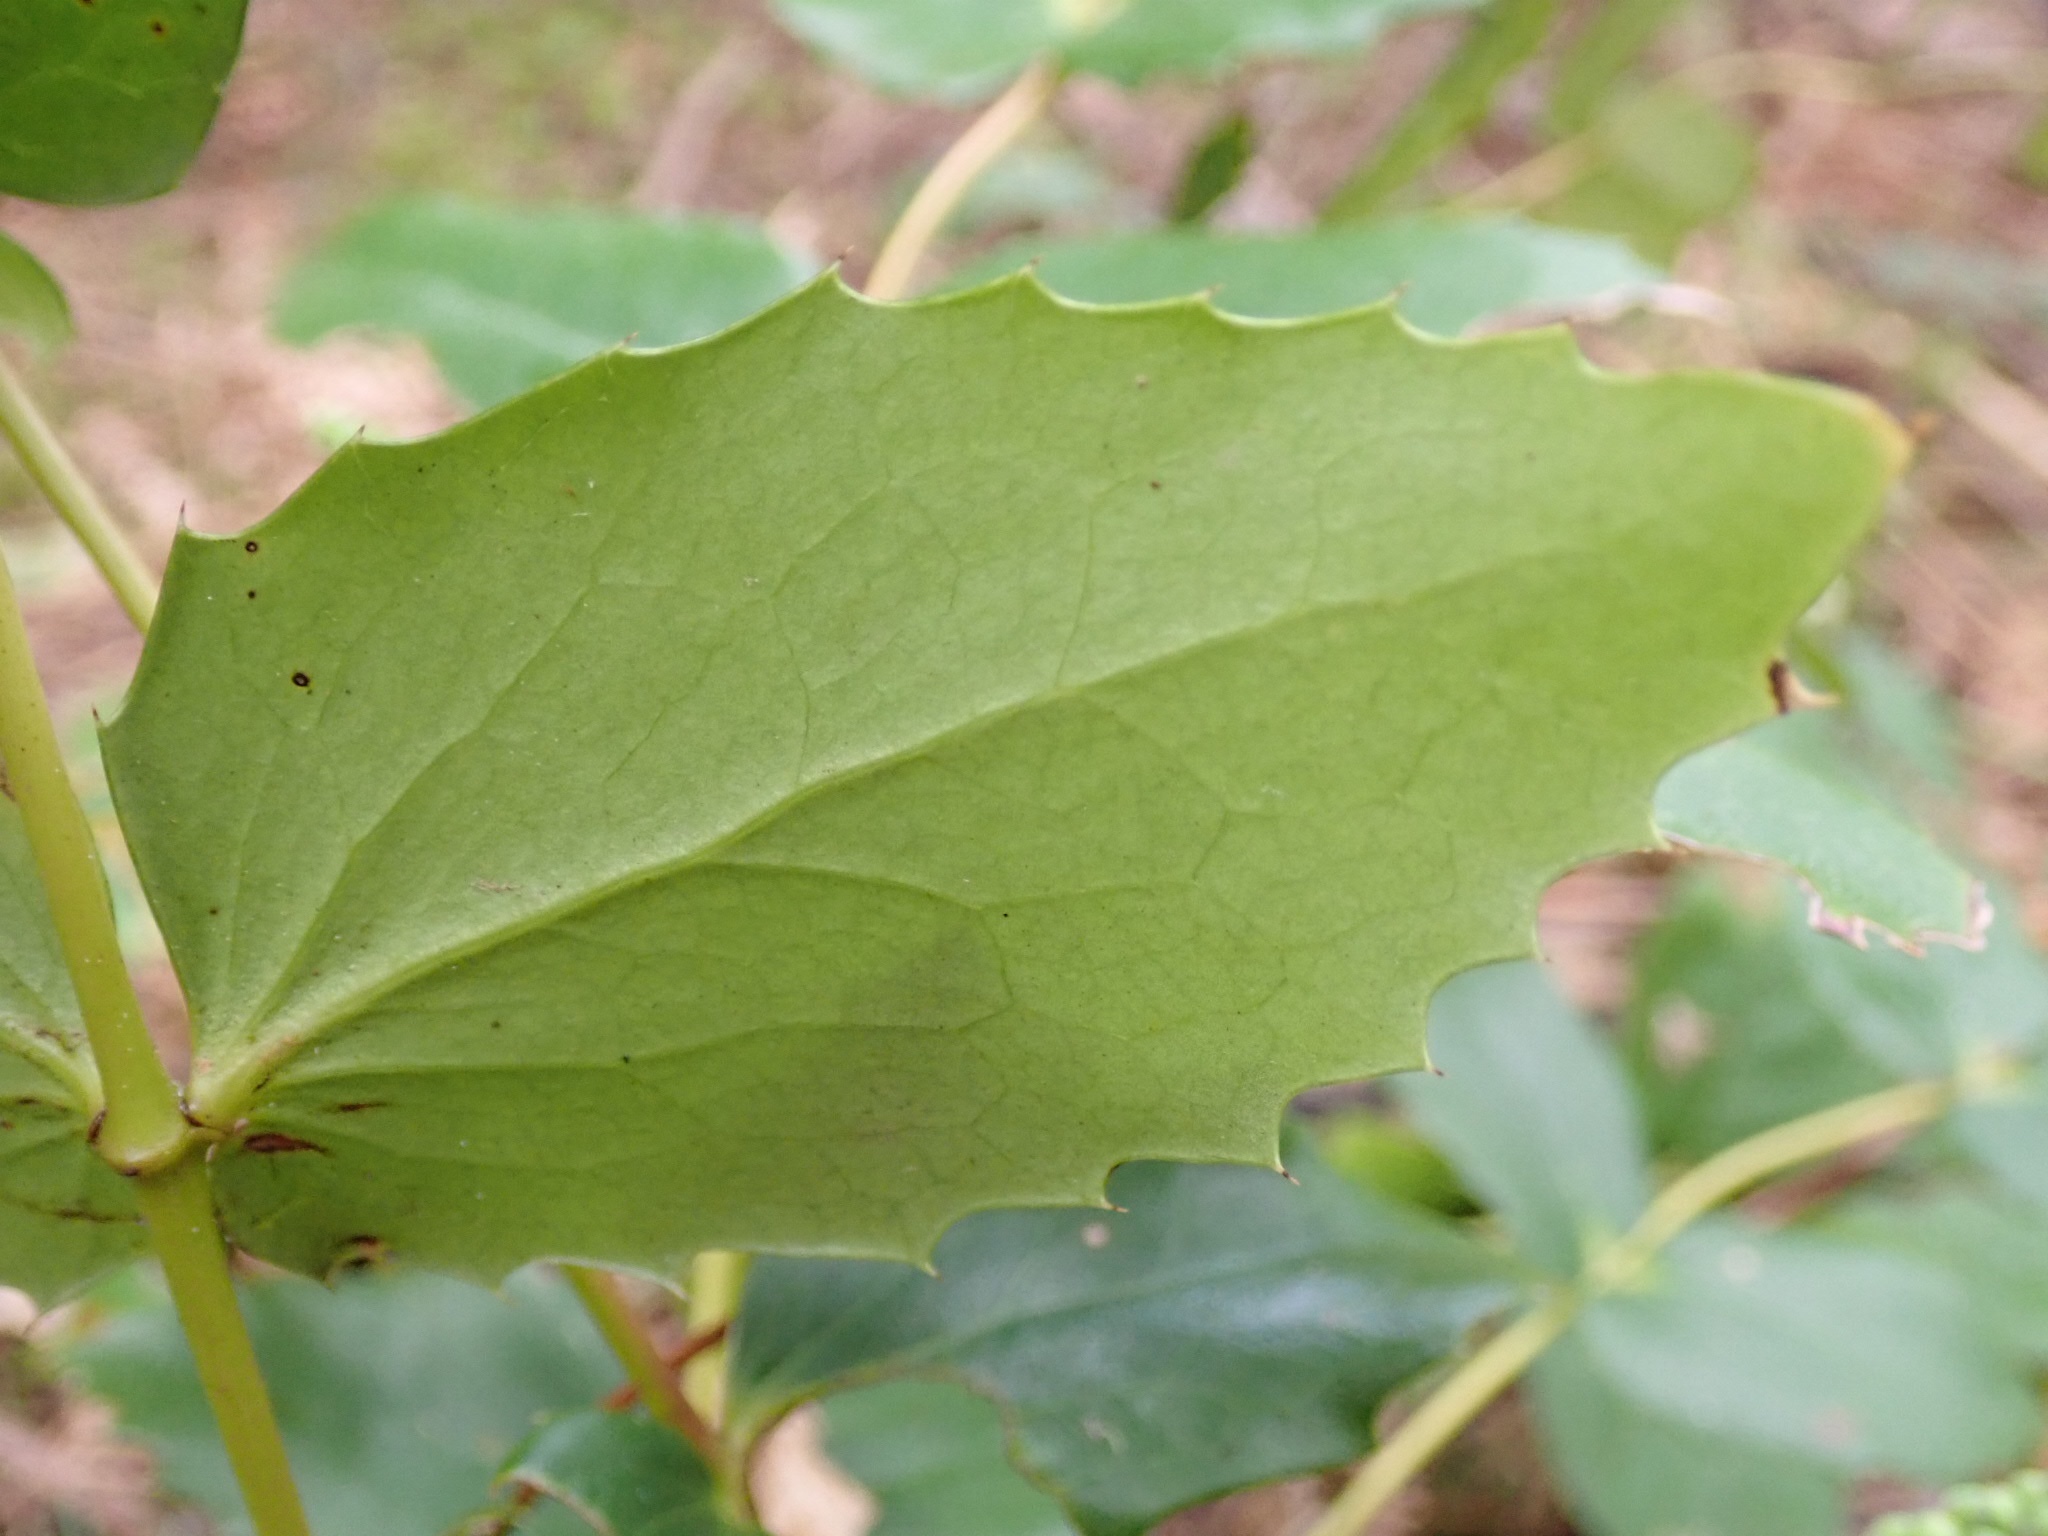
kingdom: Plantae
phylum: Tracheophyta
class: Magnoliopsida
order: Ranunculales
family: Berberidaceae
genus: Mahonia
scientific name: Mahonia nervosa
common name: Cascade oregon-grape
